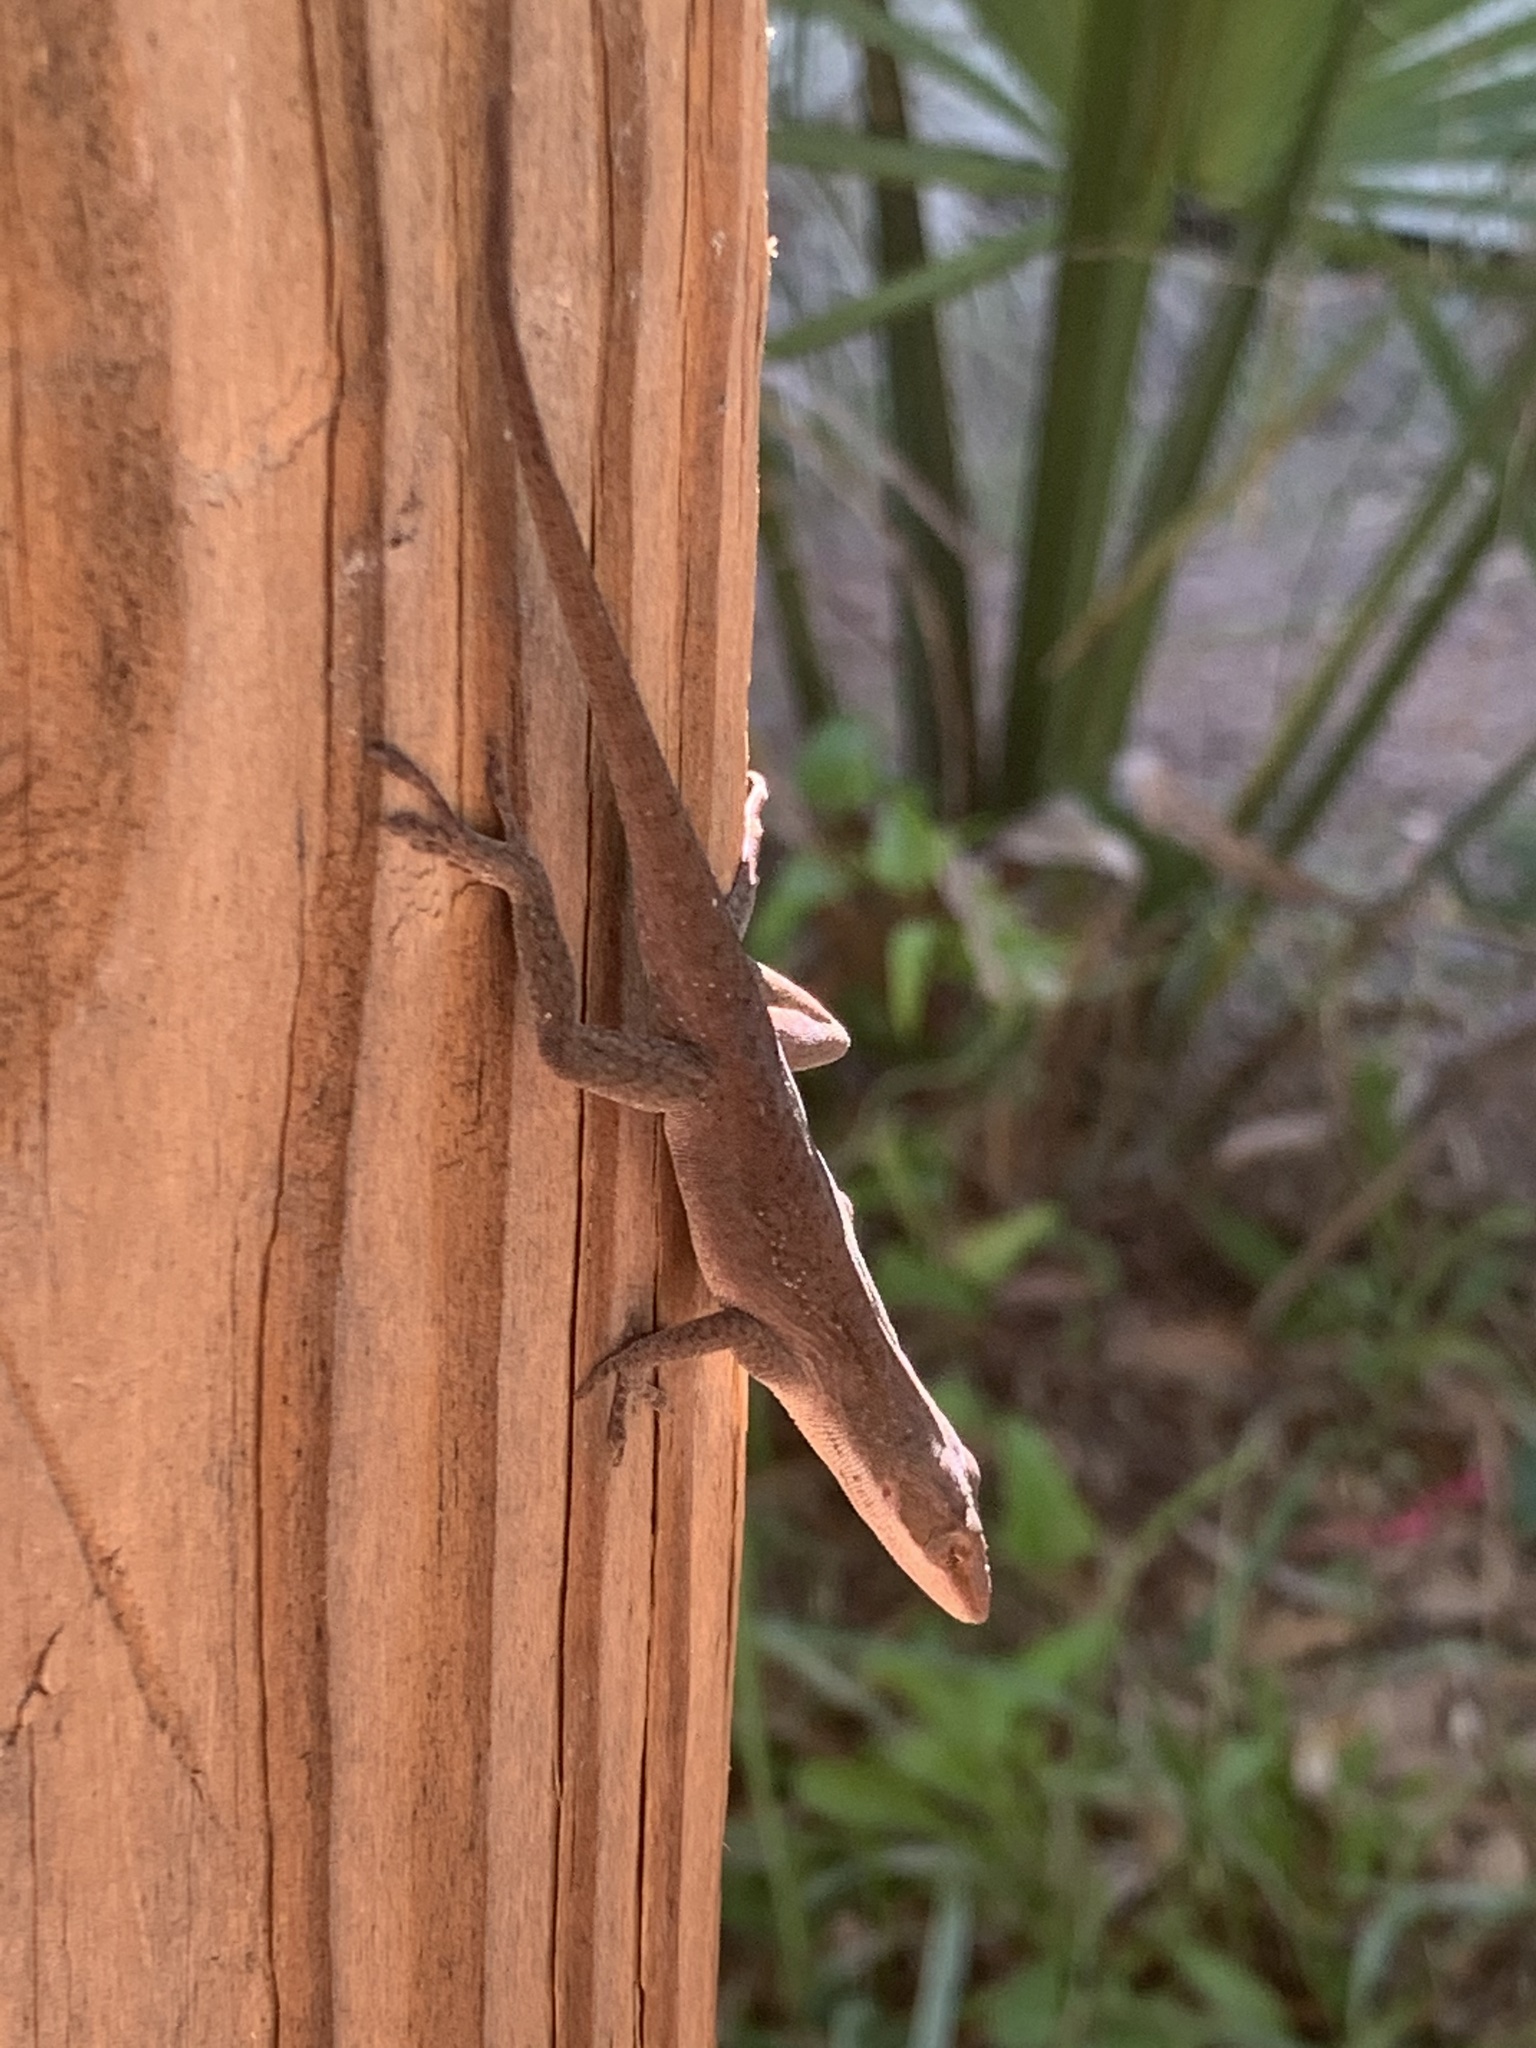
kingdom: Animalia
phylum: Chordata
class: Squamata
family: Dactyloidae
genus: Anolis
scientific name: Anolis carolinensis
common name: Green anole
